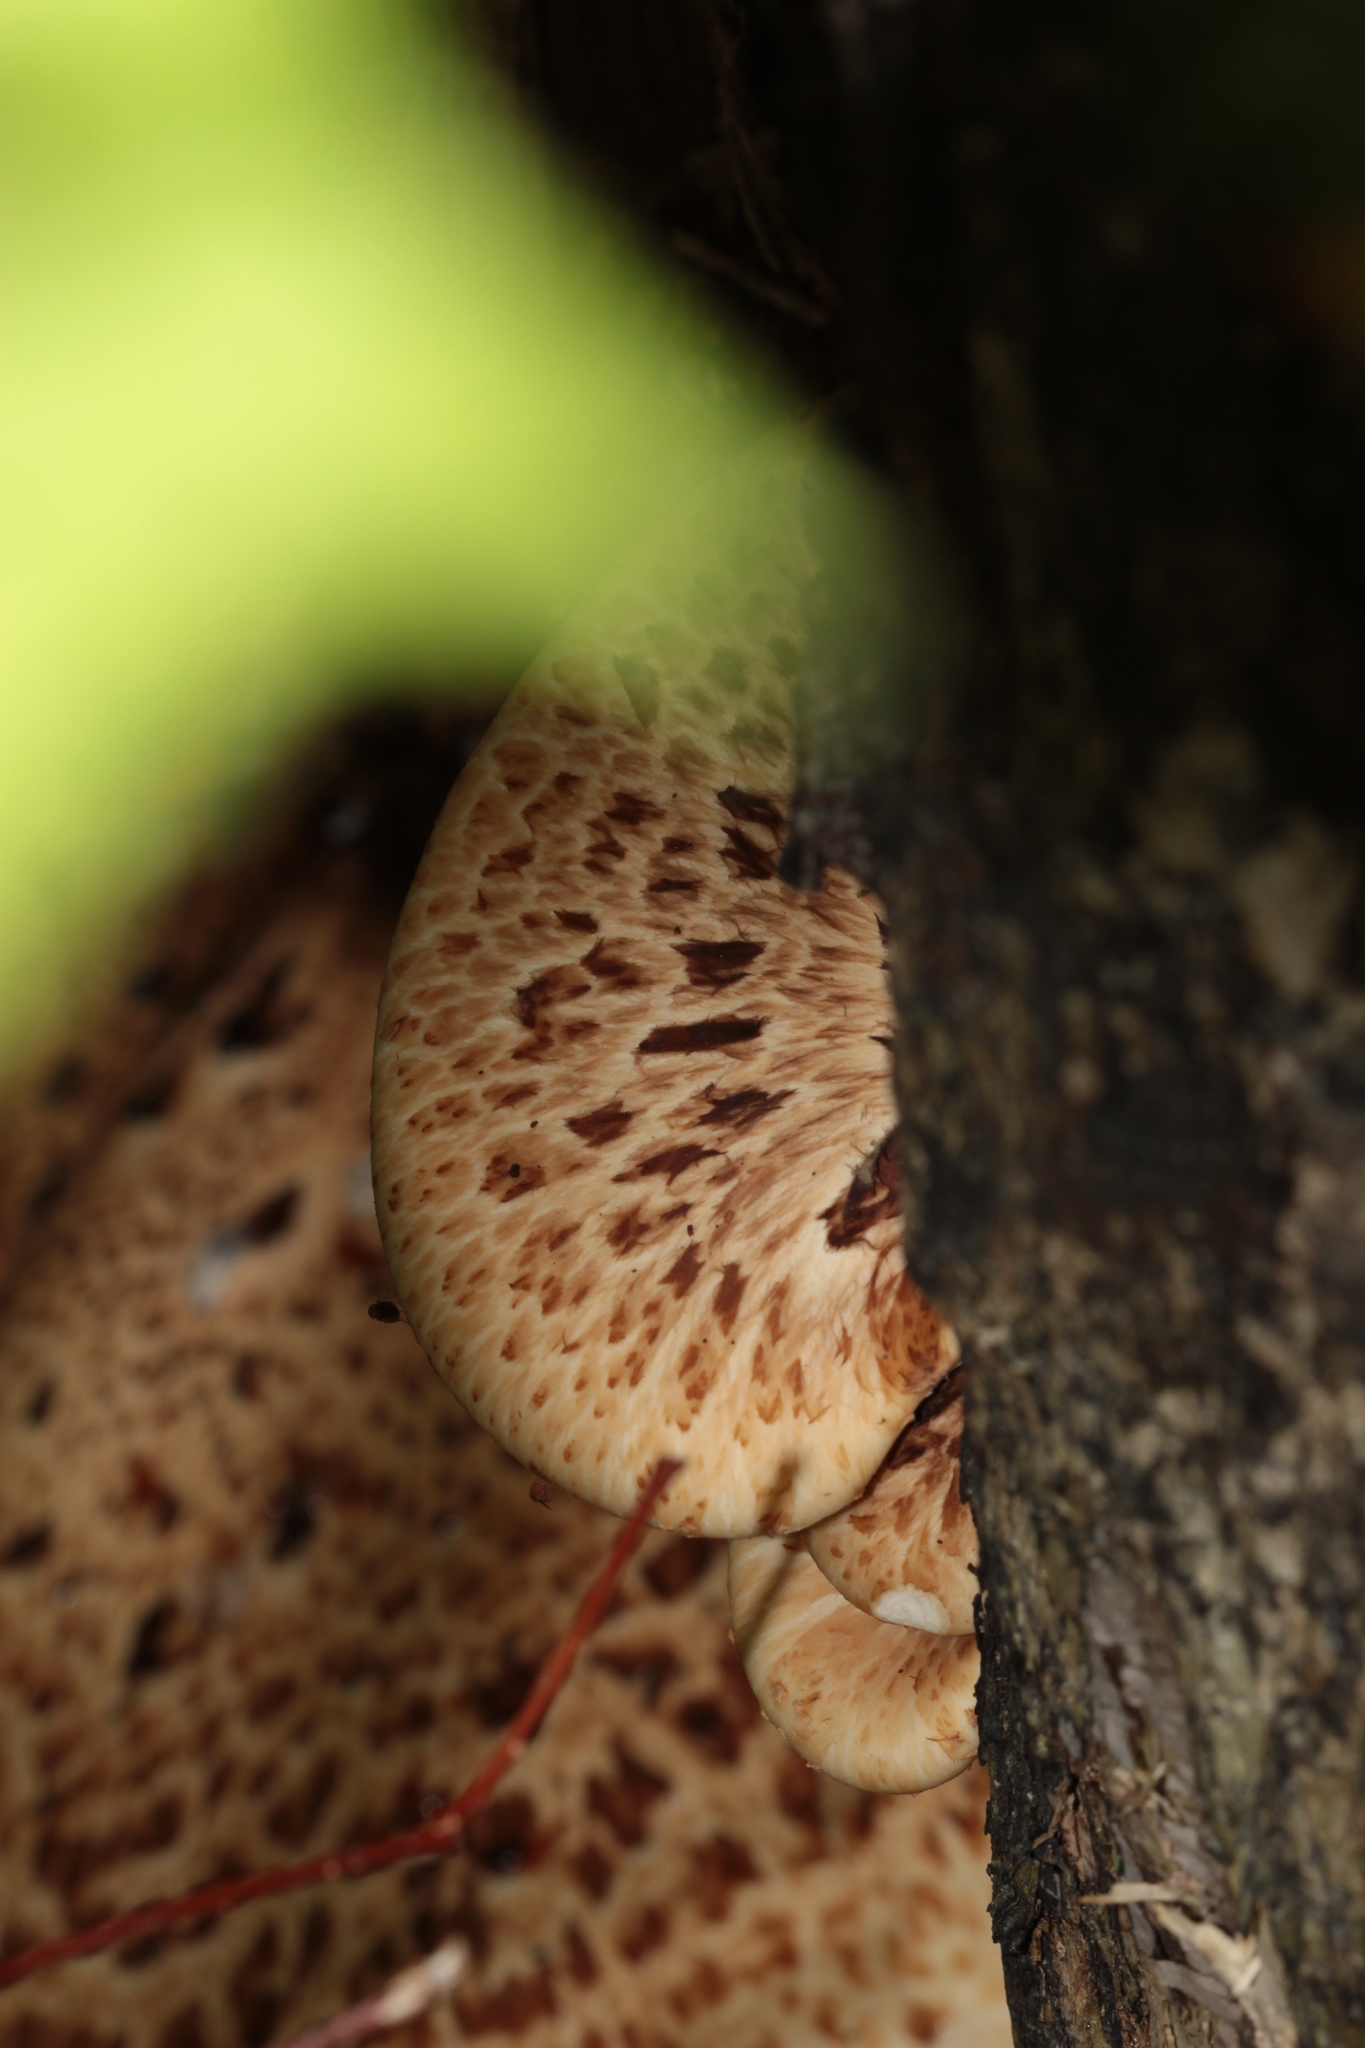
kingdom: Fungi
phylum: Basidiomycota
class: Agaricomycetes
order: Polyporales
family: Polyporaceae
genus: Cerioporus
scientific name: Cerioporus squamosus
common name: Dryad's saddle
